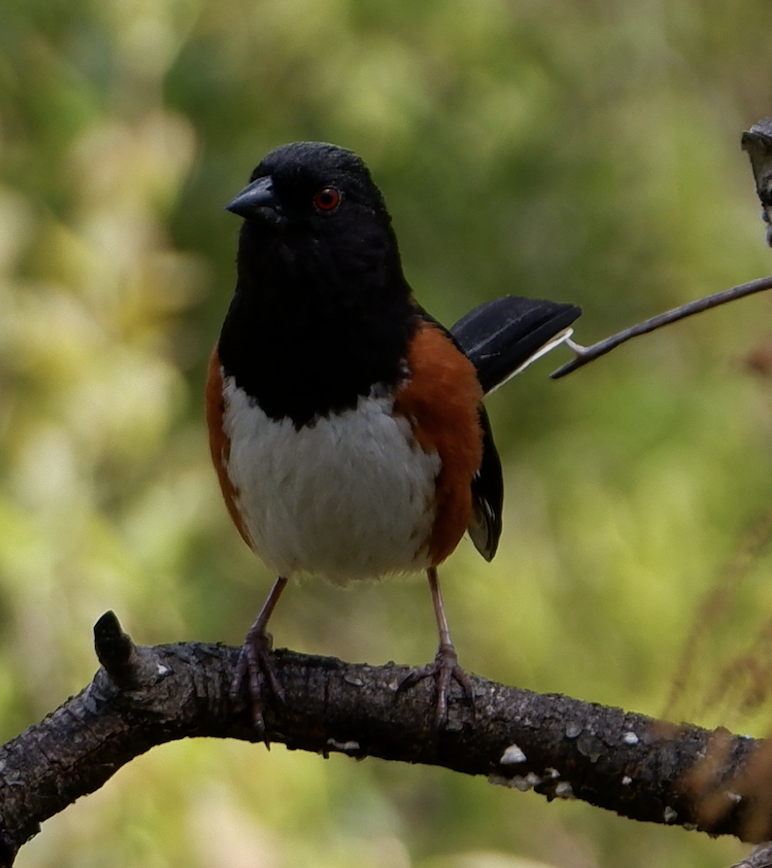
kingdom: Animalia
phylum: Chordata
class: Aves
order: Passeriformes
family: Passerellidae
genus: Pipilo
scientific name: Pipilo erythrophthalmus
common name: Eastern towhee
